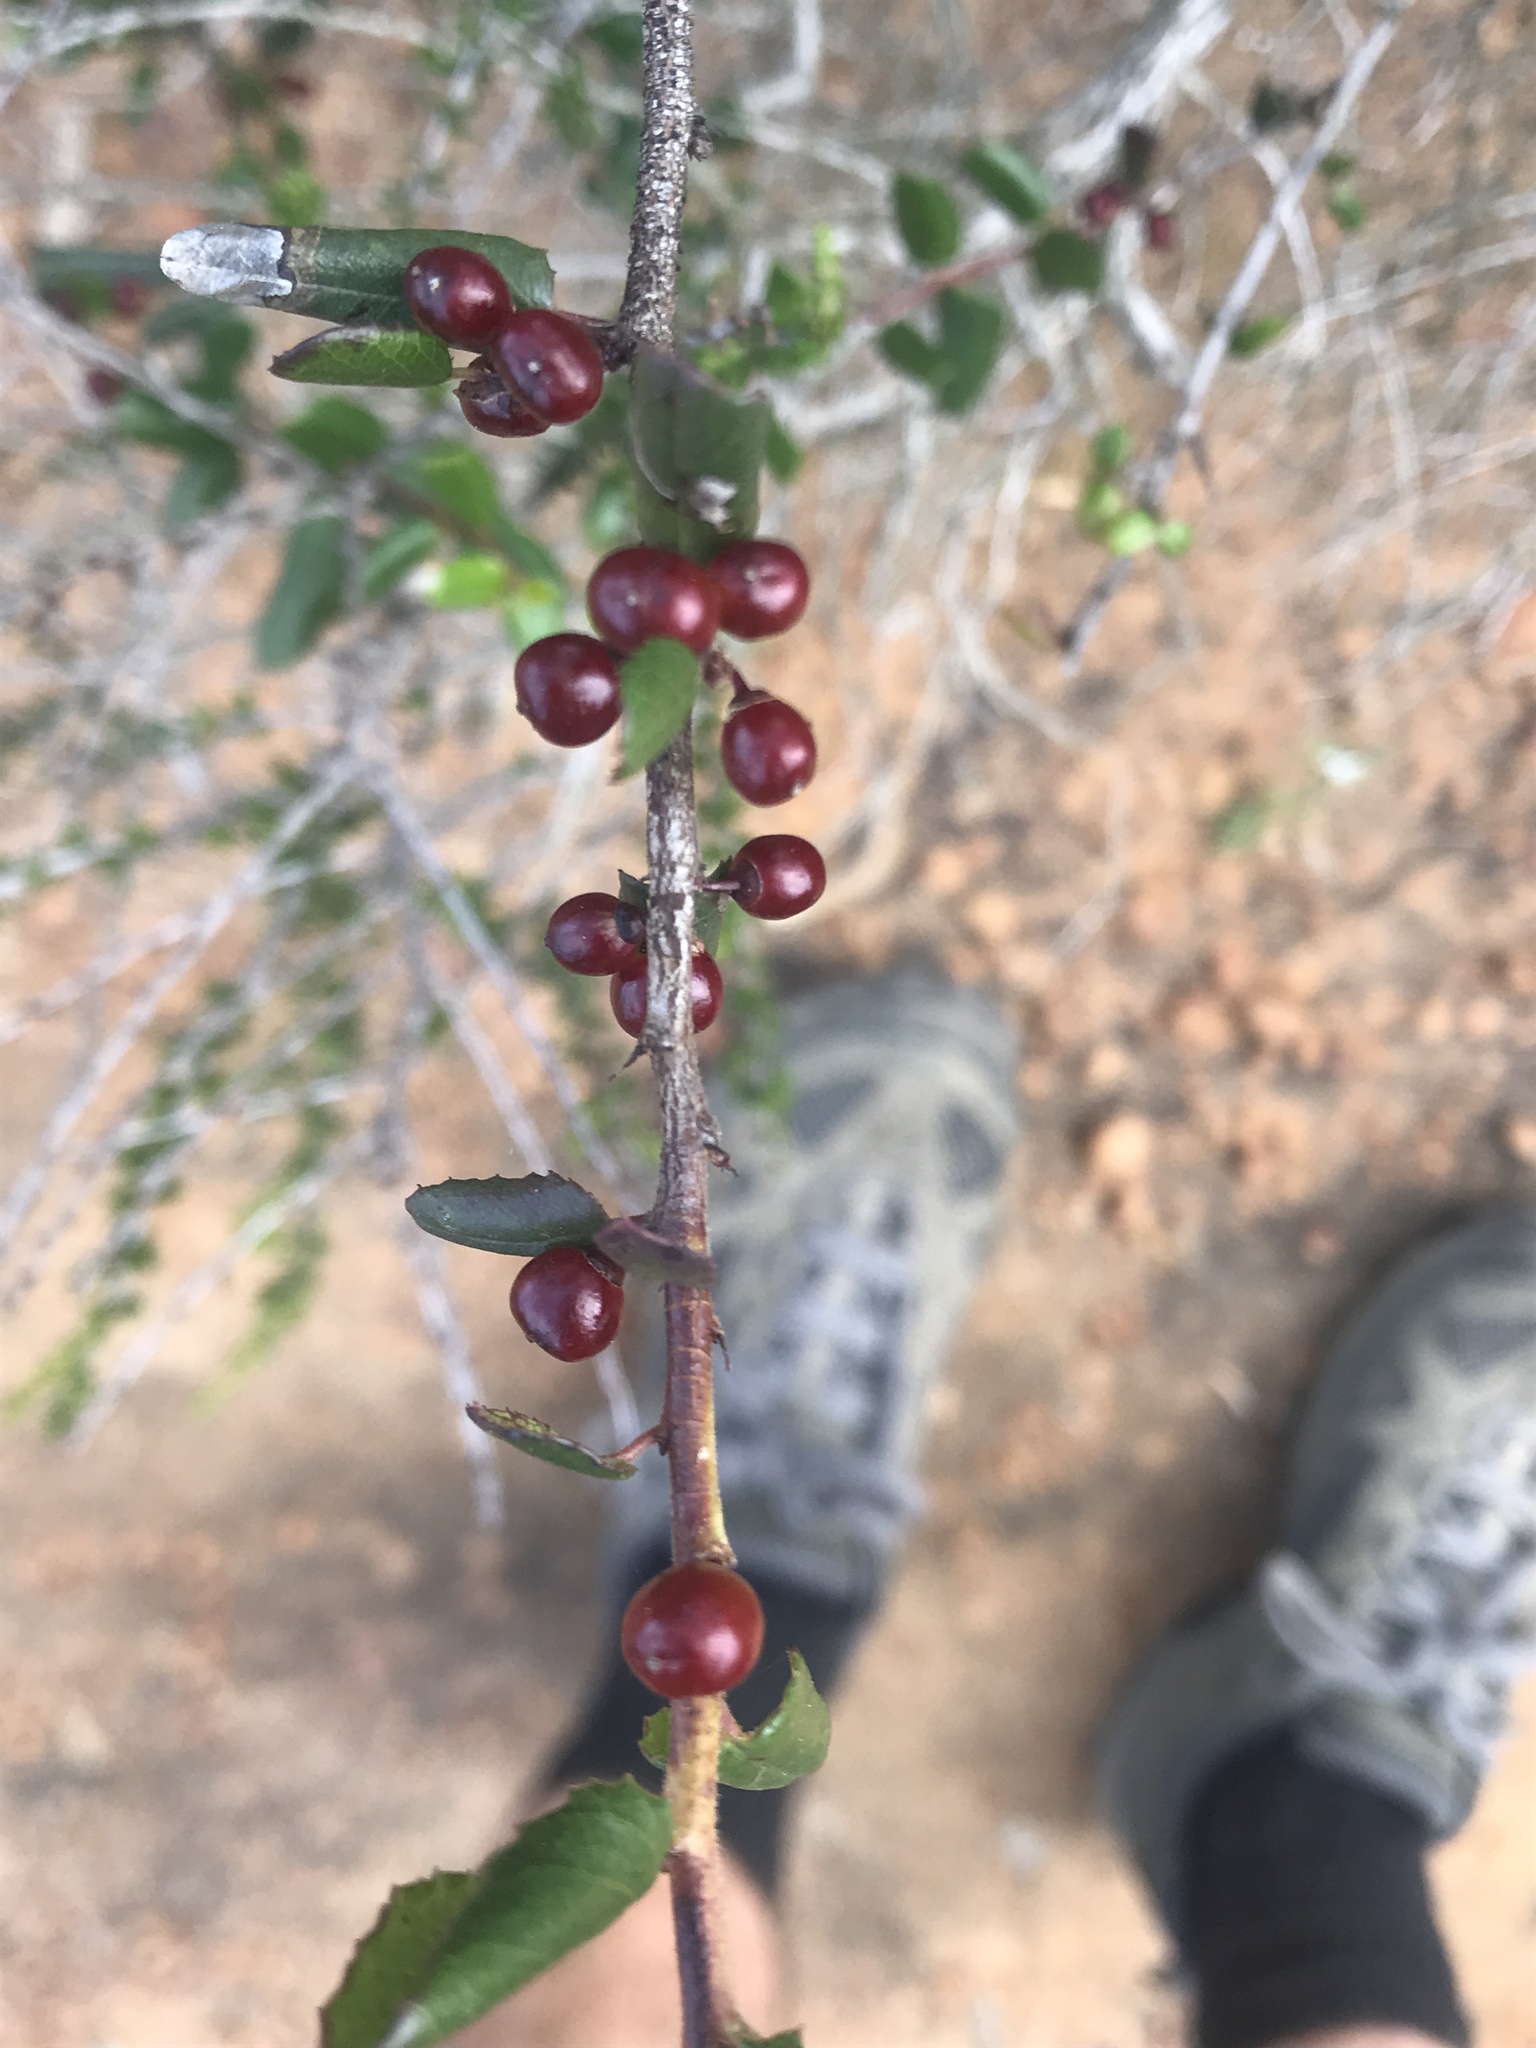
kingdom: Plantae
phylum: Tracheophyta
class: Magnoliopsida
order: Rosales
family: Rhamnaceae
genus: Endotropis
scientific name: Endotropis crocea
